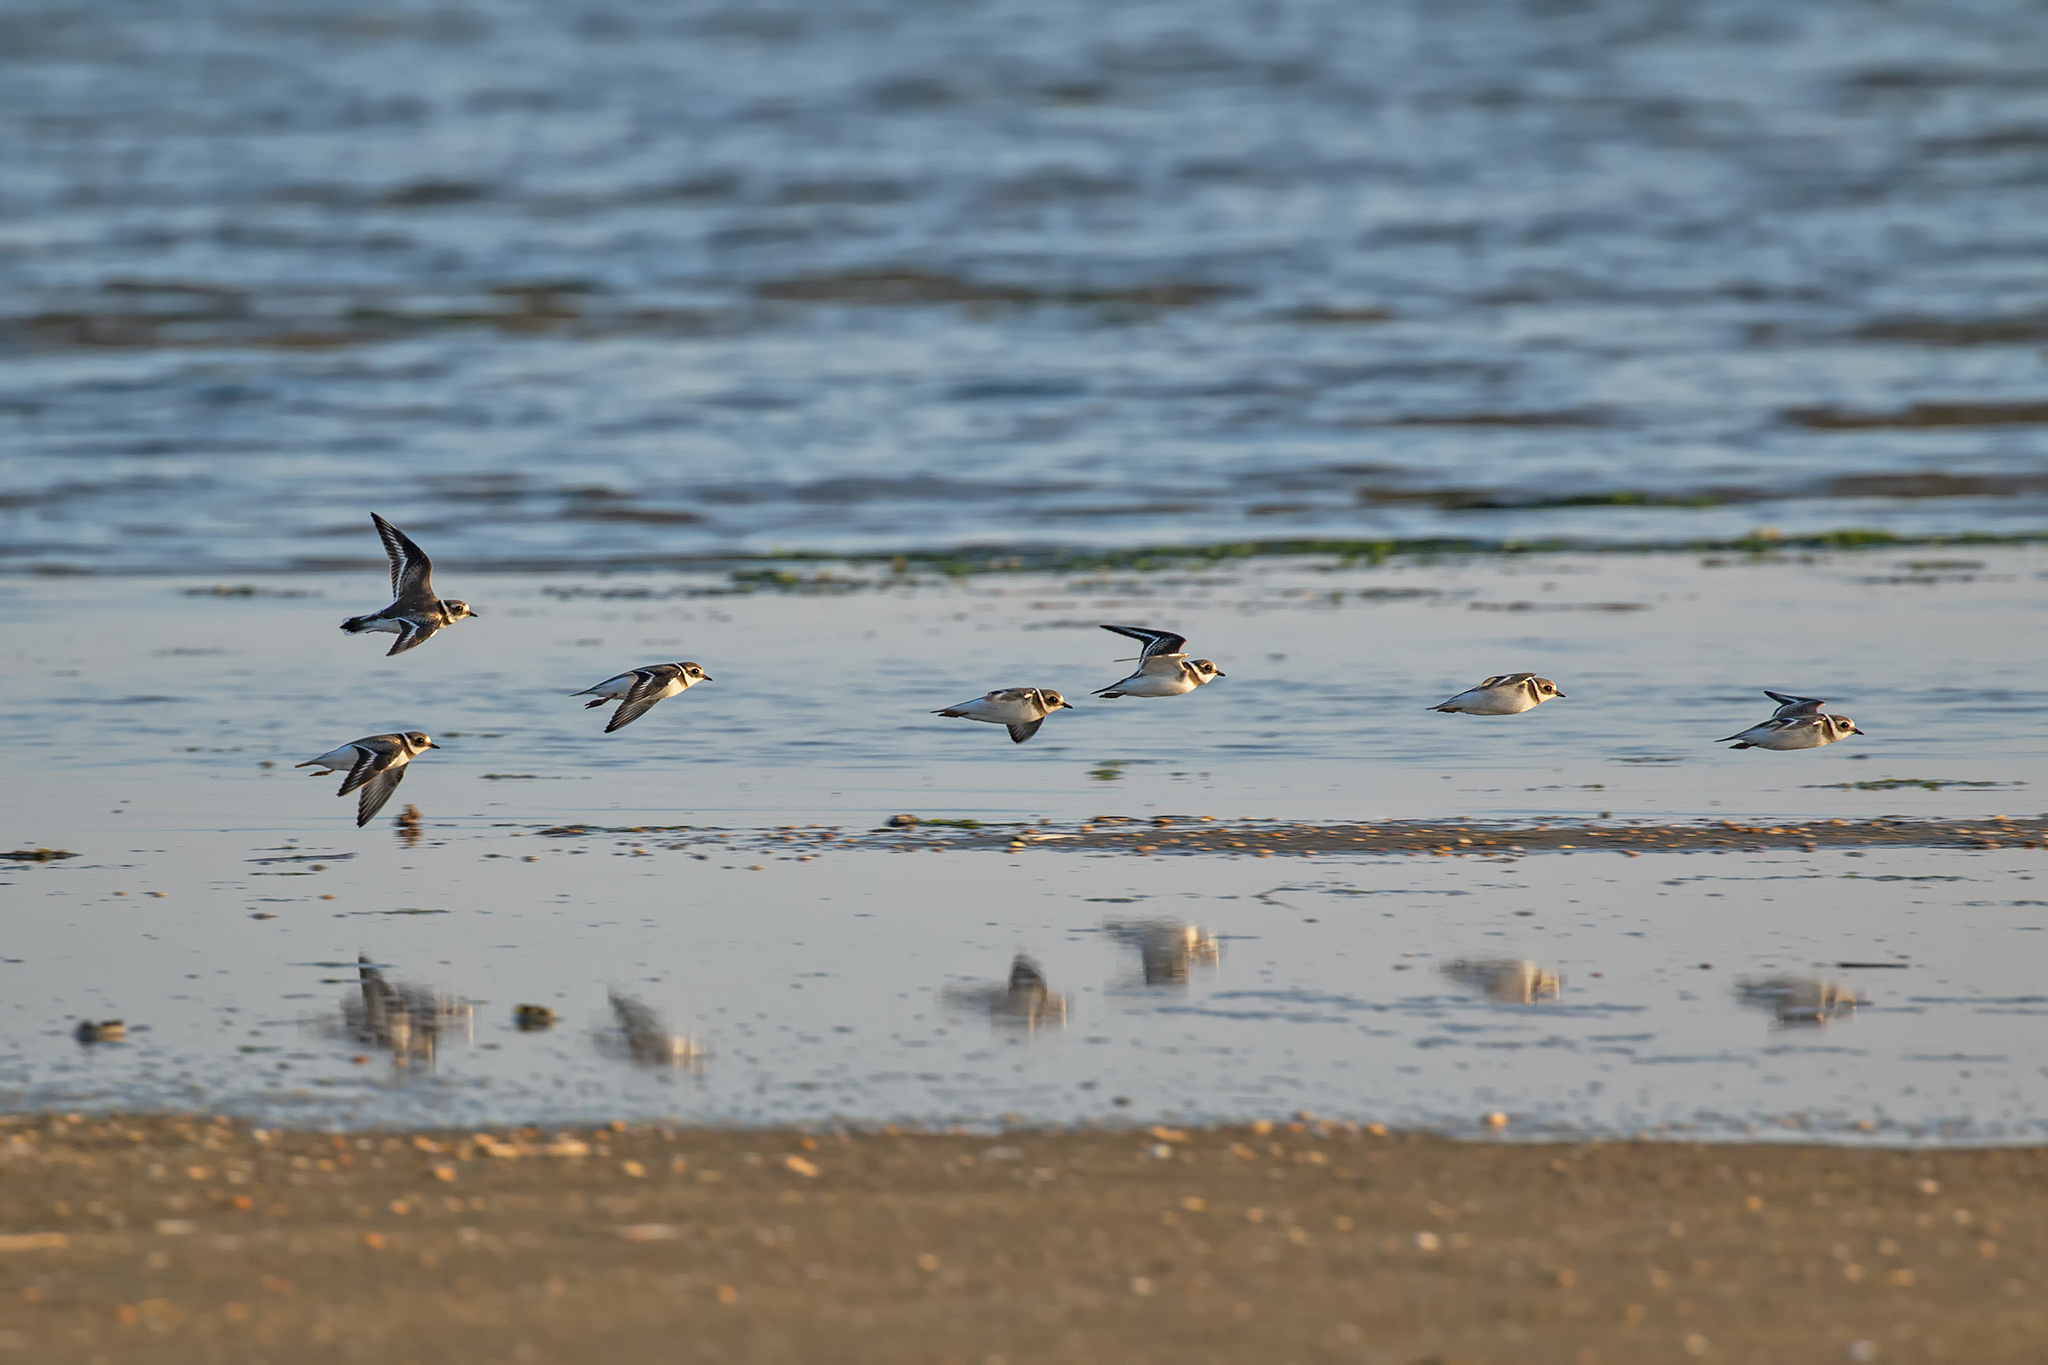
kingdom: Animalia
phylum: Chordata
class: Aves
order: Charadriiformes
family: Charadriidae
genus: Charadrius
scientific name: Charadrius hiaticula
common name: Common ringed plover
